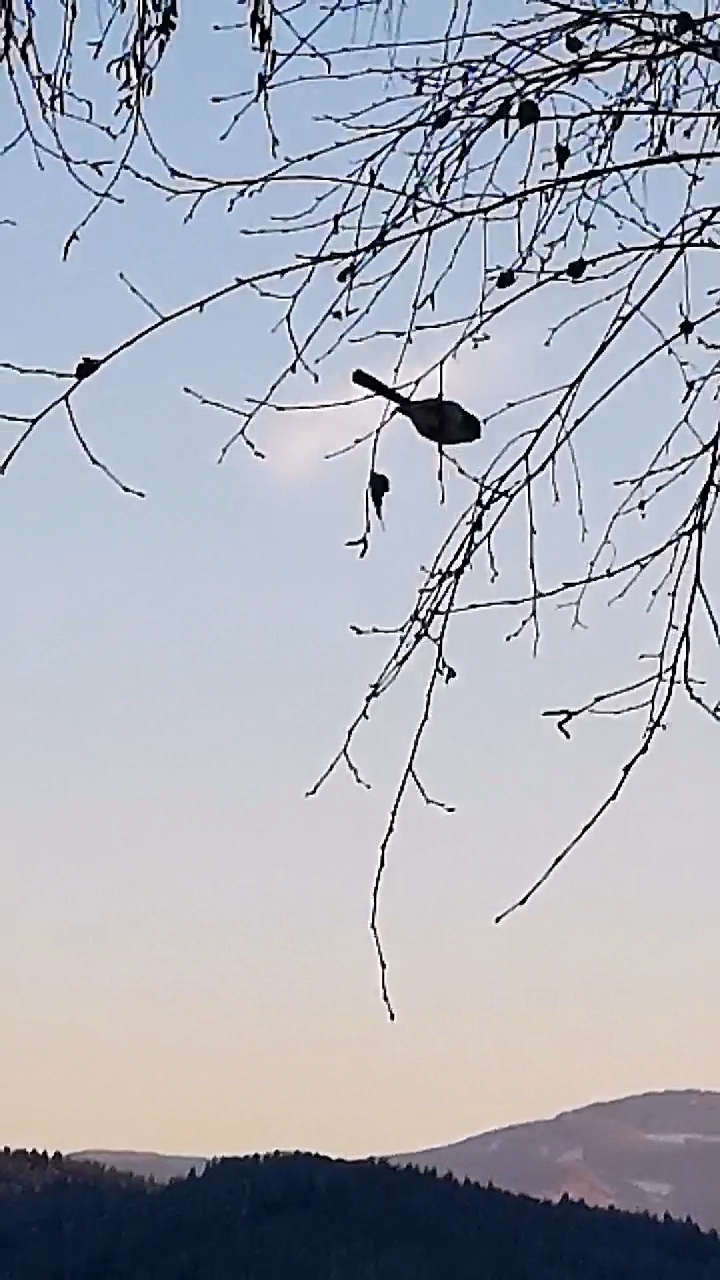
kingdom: Animalia
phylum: Chordata
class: Aves
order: Passeriformes
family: Aegithalidae
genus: Aegithalos
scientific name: Aegithalos caudatus
